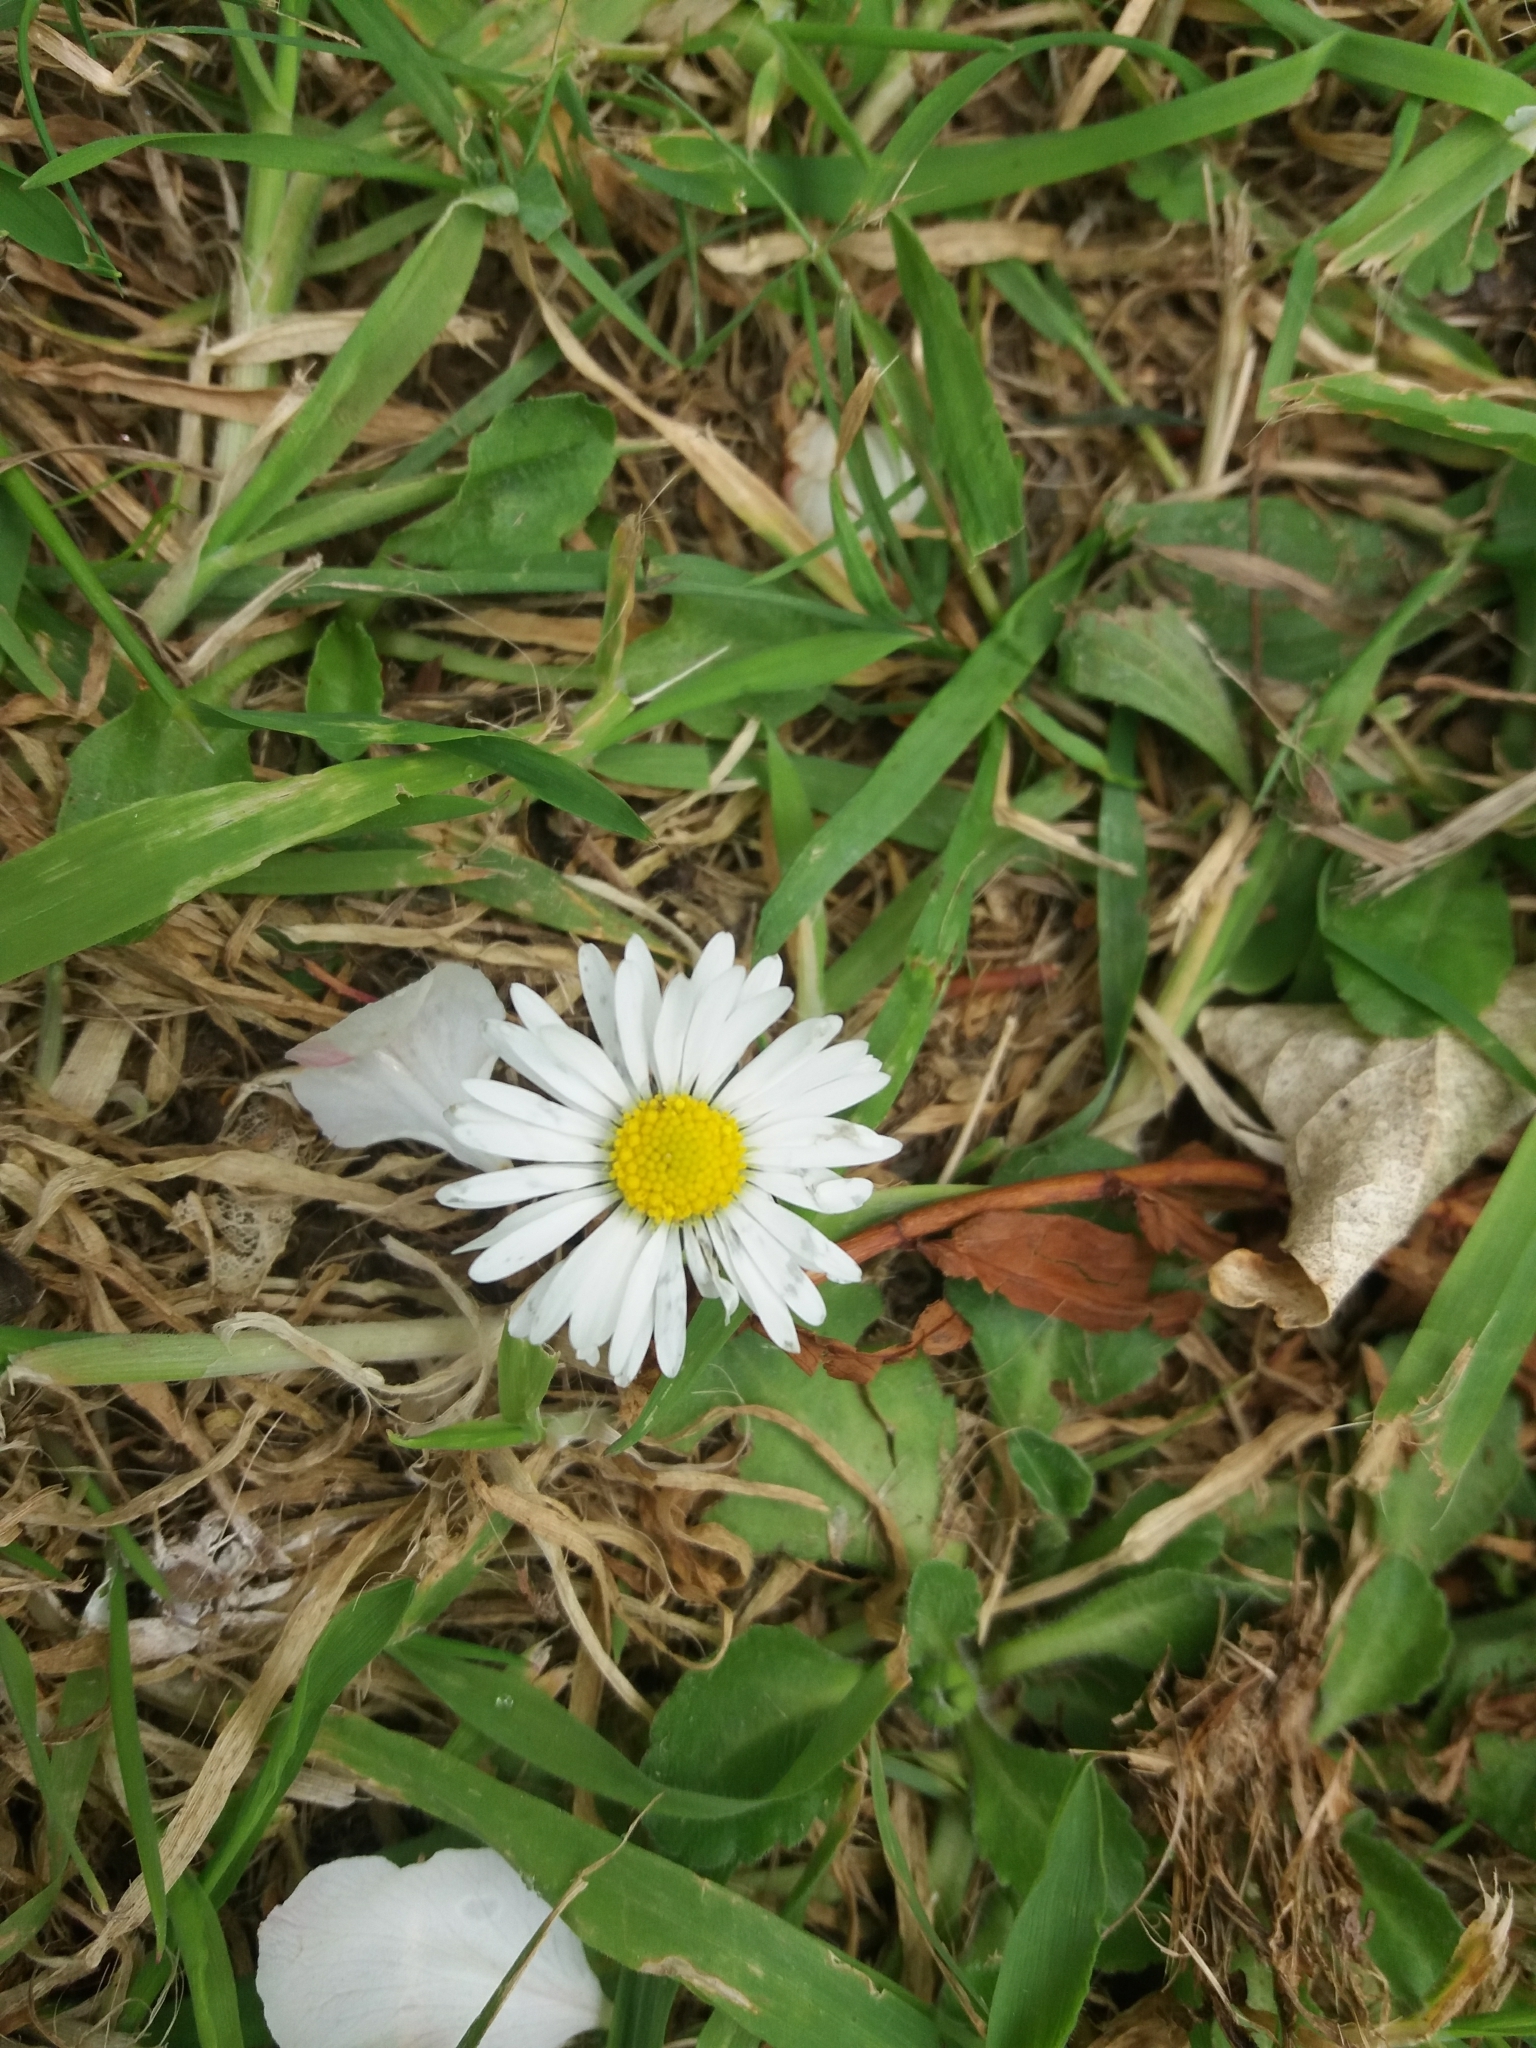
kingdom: Plantae
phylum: Tracheophyta
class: Magnoliopsida
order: Asterales
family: Asteraceae
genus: Bellis
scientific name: Bellis perennis
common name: Lawndaisy
